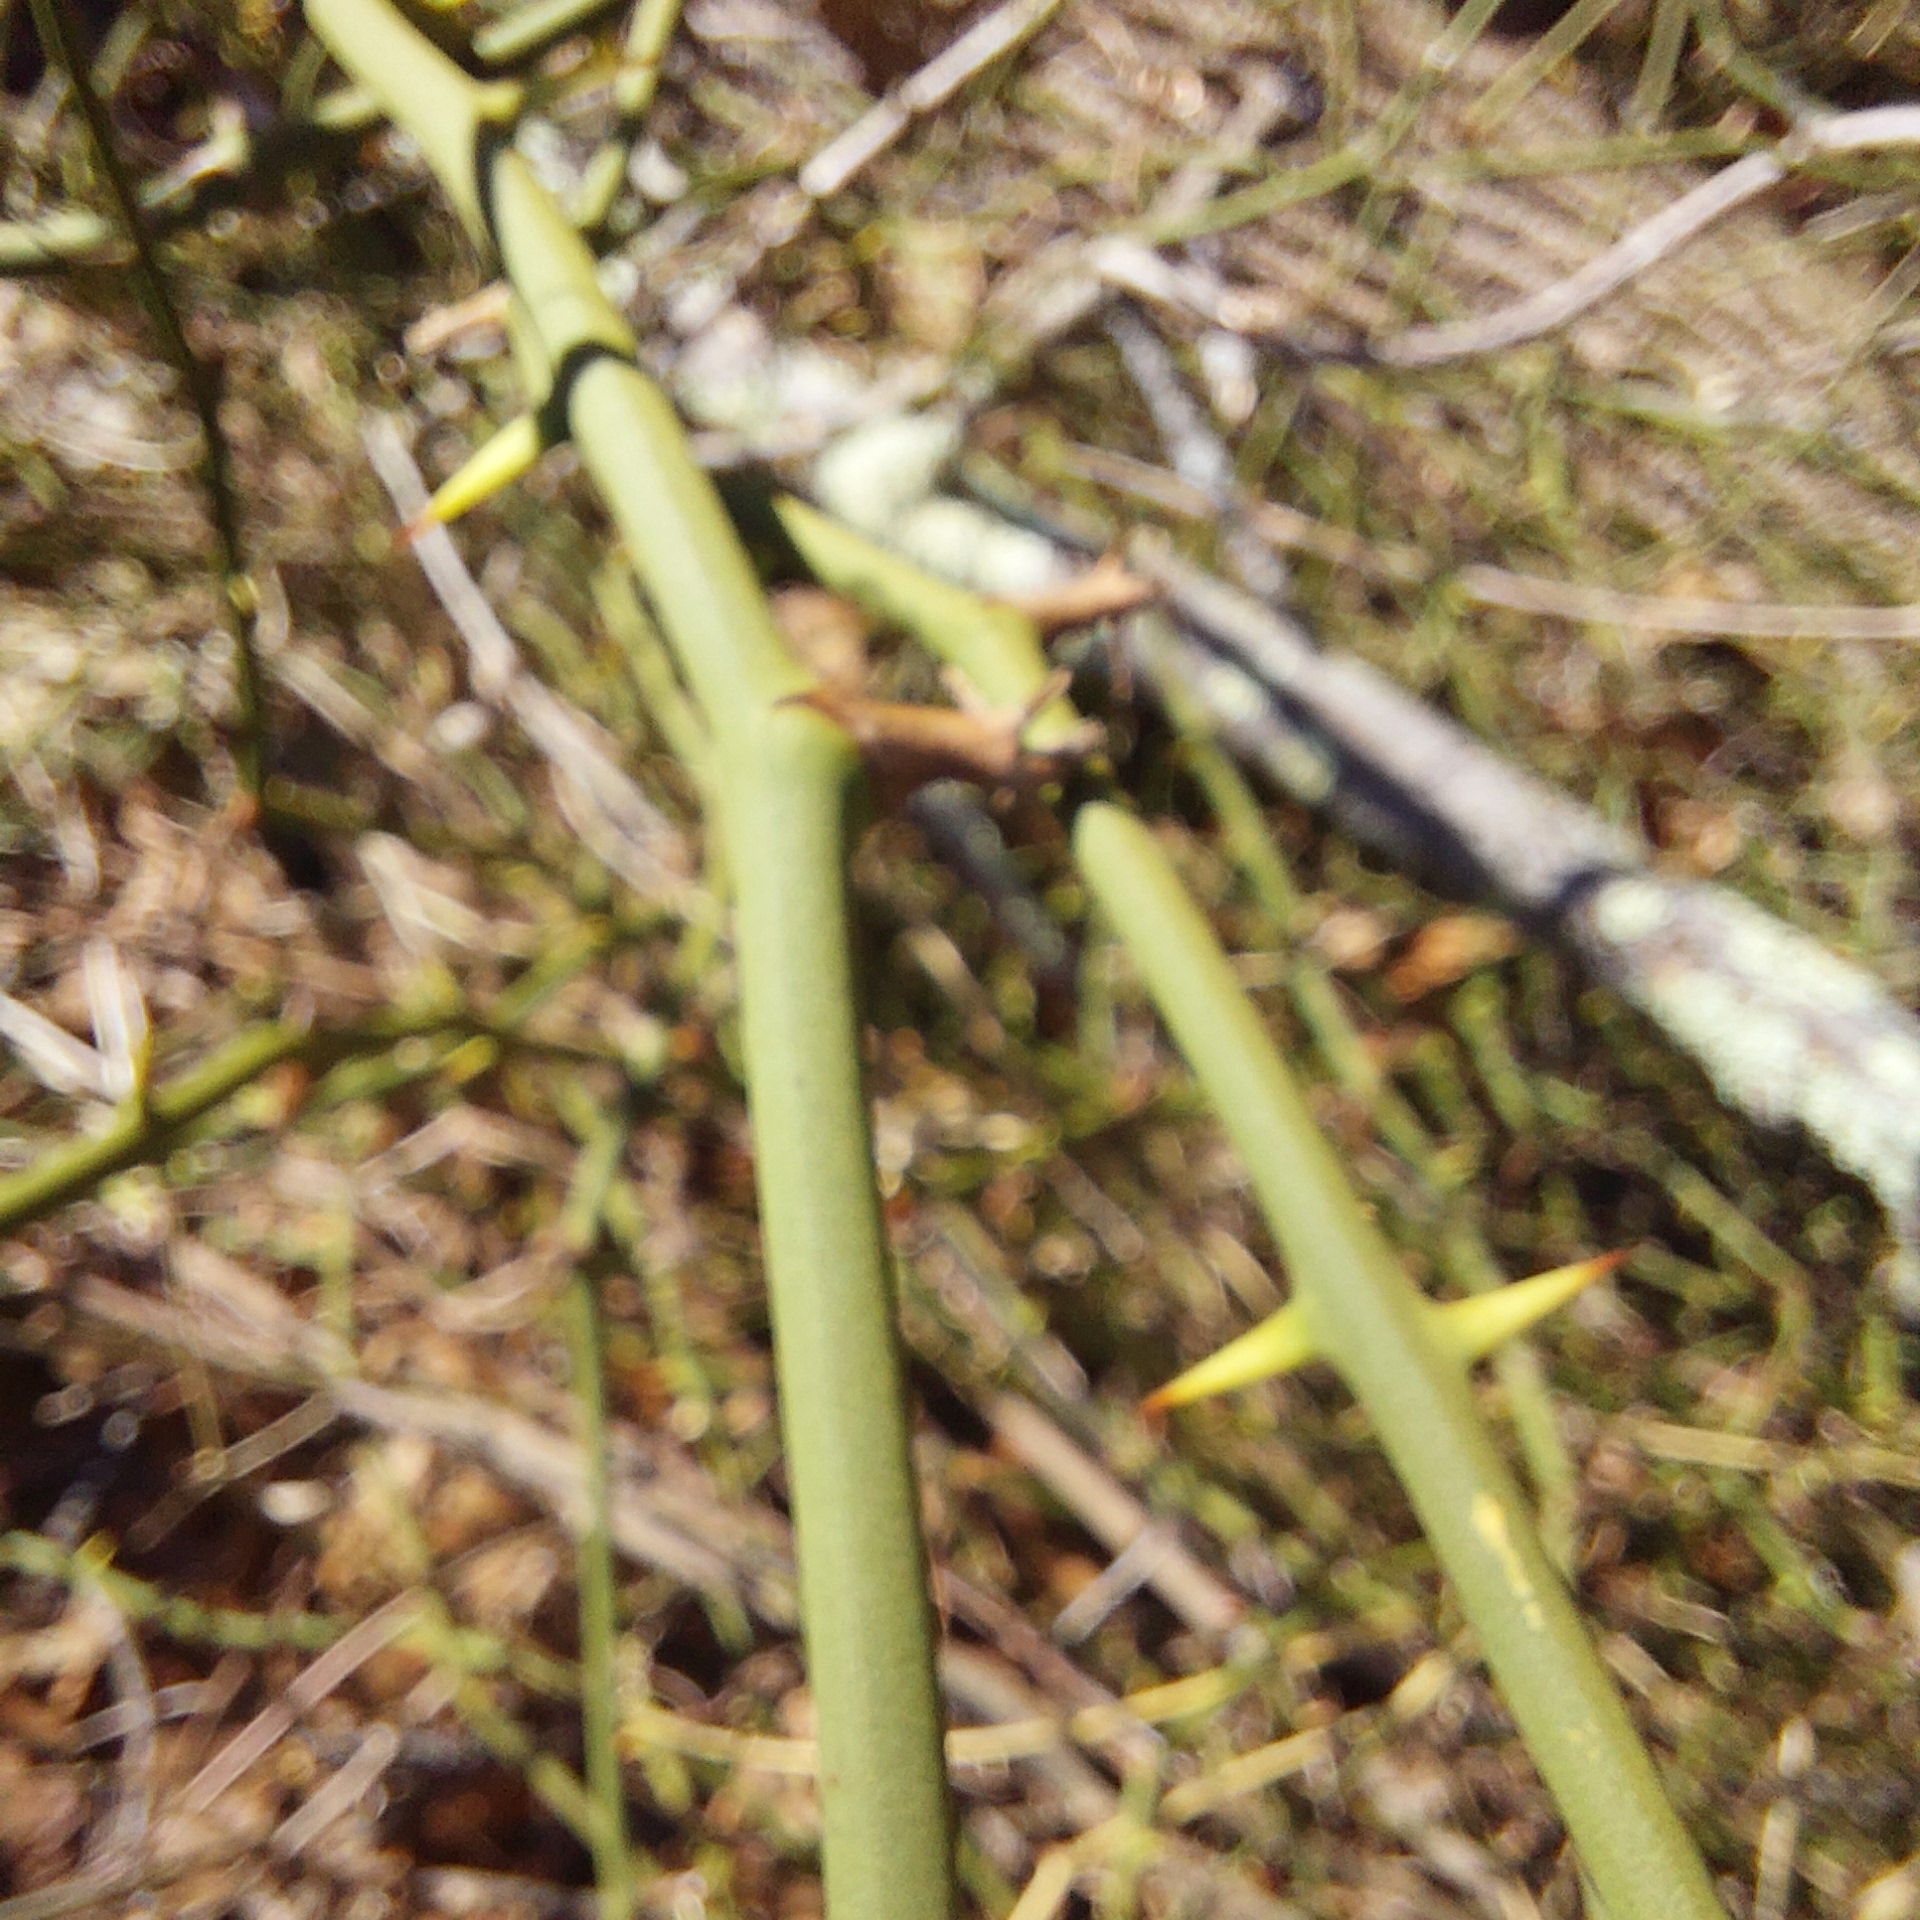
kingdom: Plantae
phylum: Tracheophyta
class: Liliopsida
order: Liliales
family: Smilacaceae
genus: Smilax
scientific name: Smilax rotundifolia
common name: Bullbriar
